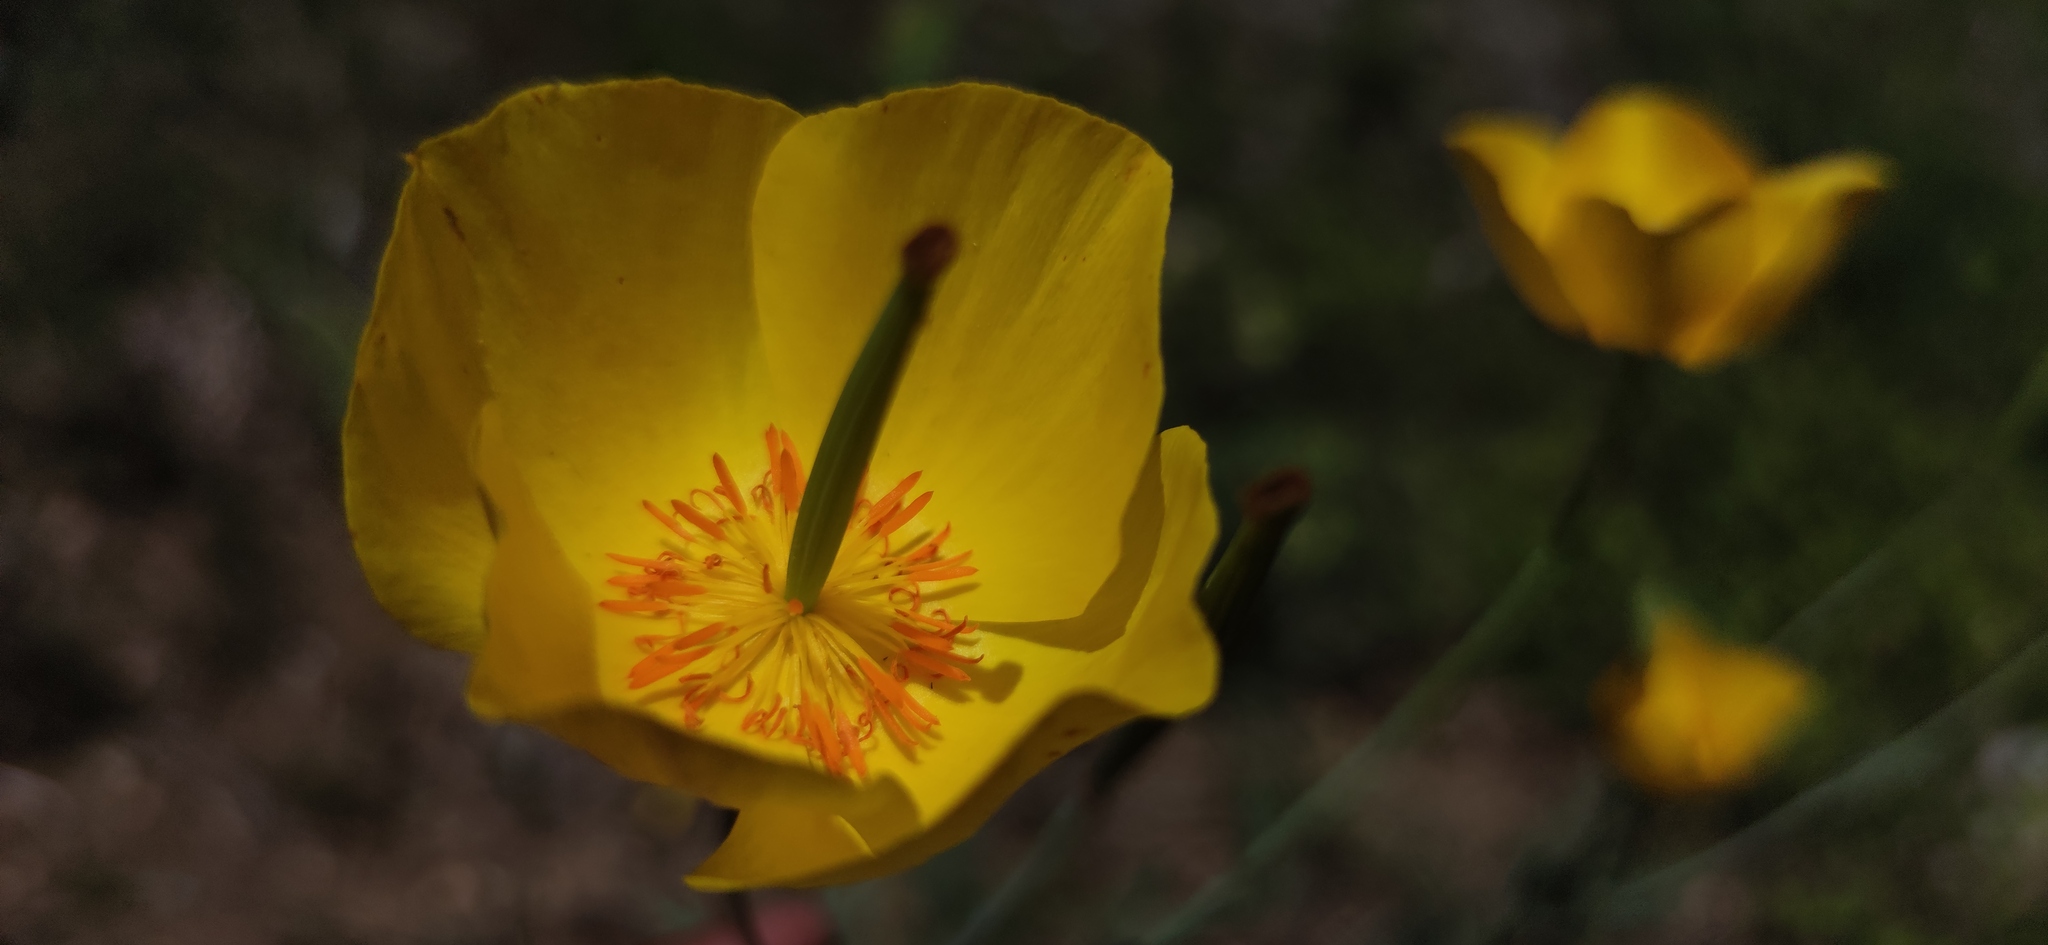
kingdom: Plantae
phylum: Tracheophyta
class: Magnoliopsida
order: Ranunculales
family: Papaveraceae
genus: Hunnemannia
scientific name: Hunnemannia fumariifolia
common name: Mexican tulip poppy
